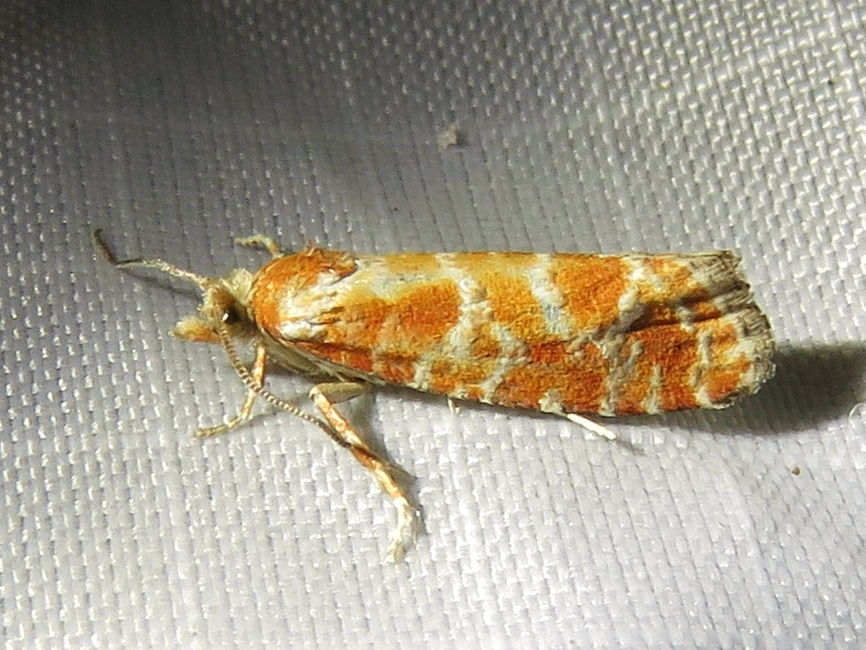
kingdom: Animalia
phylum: Arthropoda
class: Insecta
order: Lepidoptera
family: Tortricidae
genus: Rhyacionia
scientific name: Rhyacionia pinicolana
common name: Orange-spotted shoot
